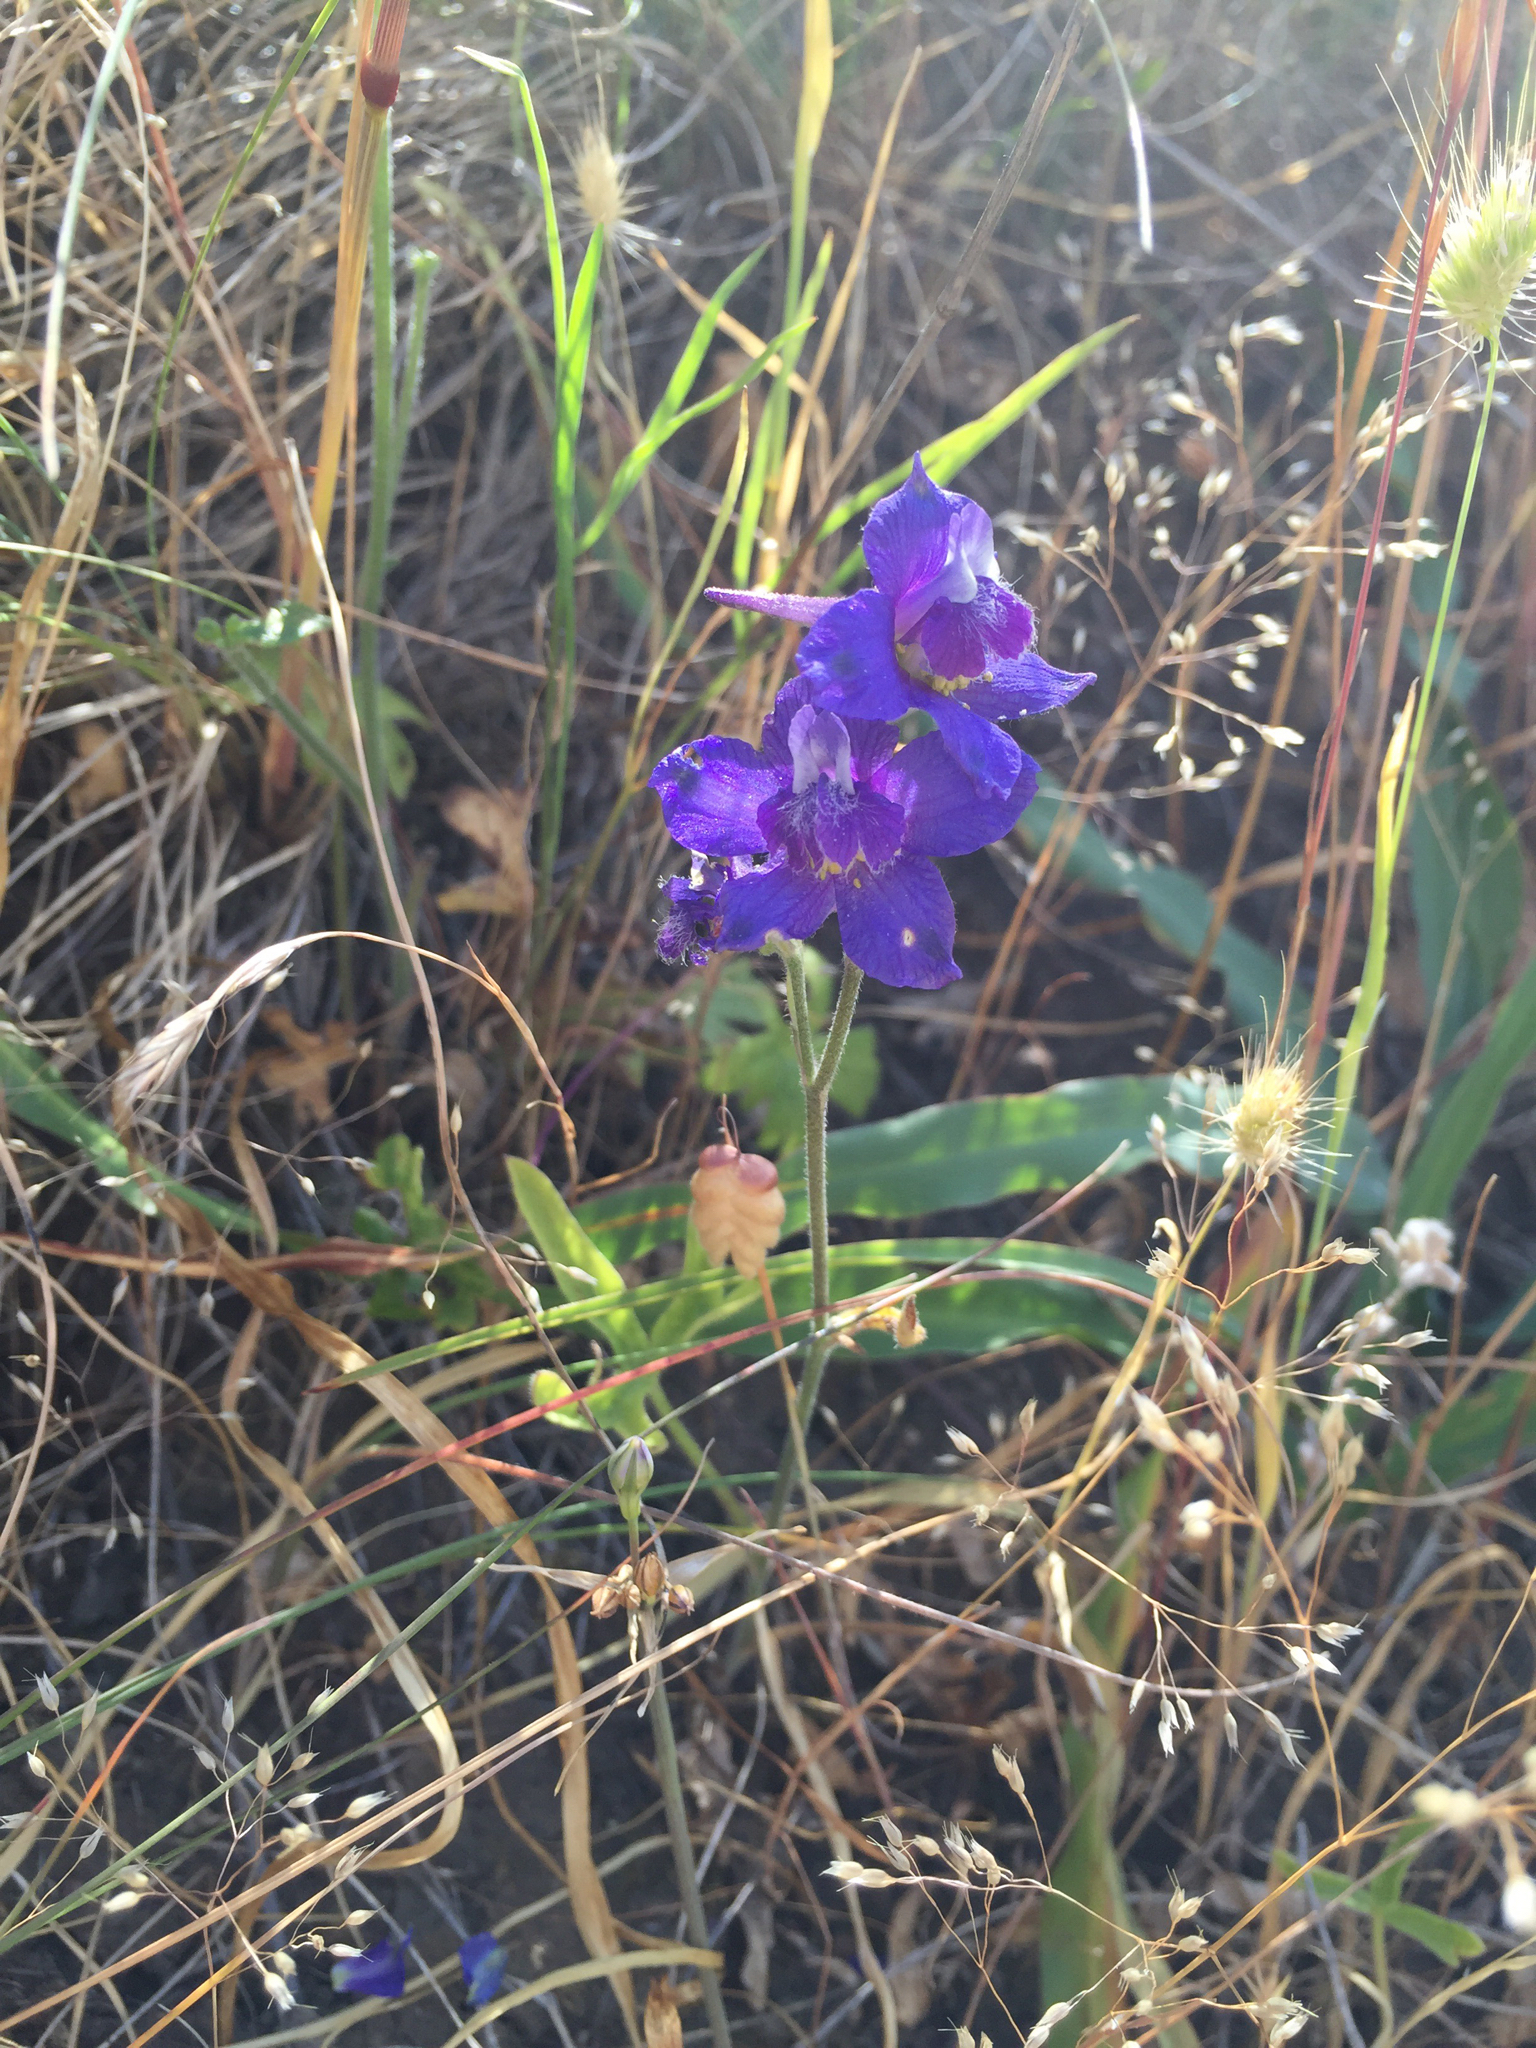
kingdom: Plantae
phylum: Tracheophyta
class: Magnoliopsida
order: Ranunculales
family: Ranunculaceae
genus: Delphinium
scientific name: Delphinium hesperium
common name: Western larkspur
